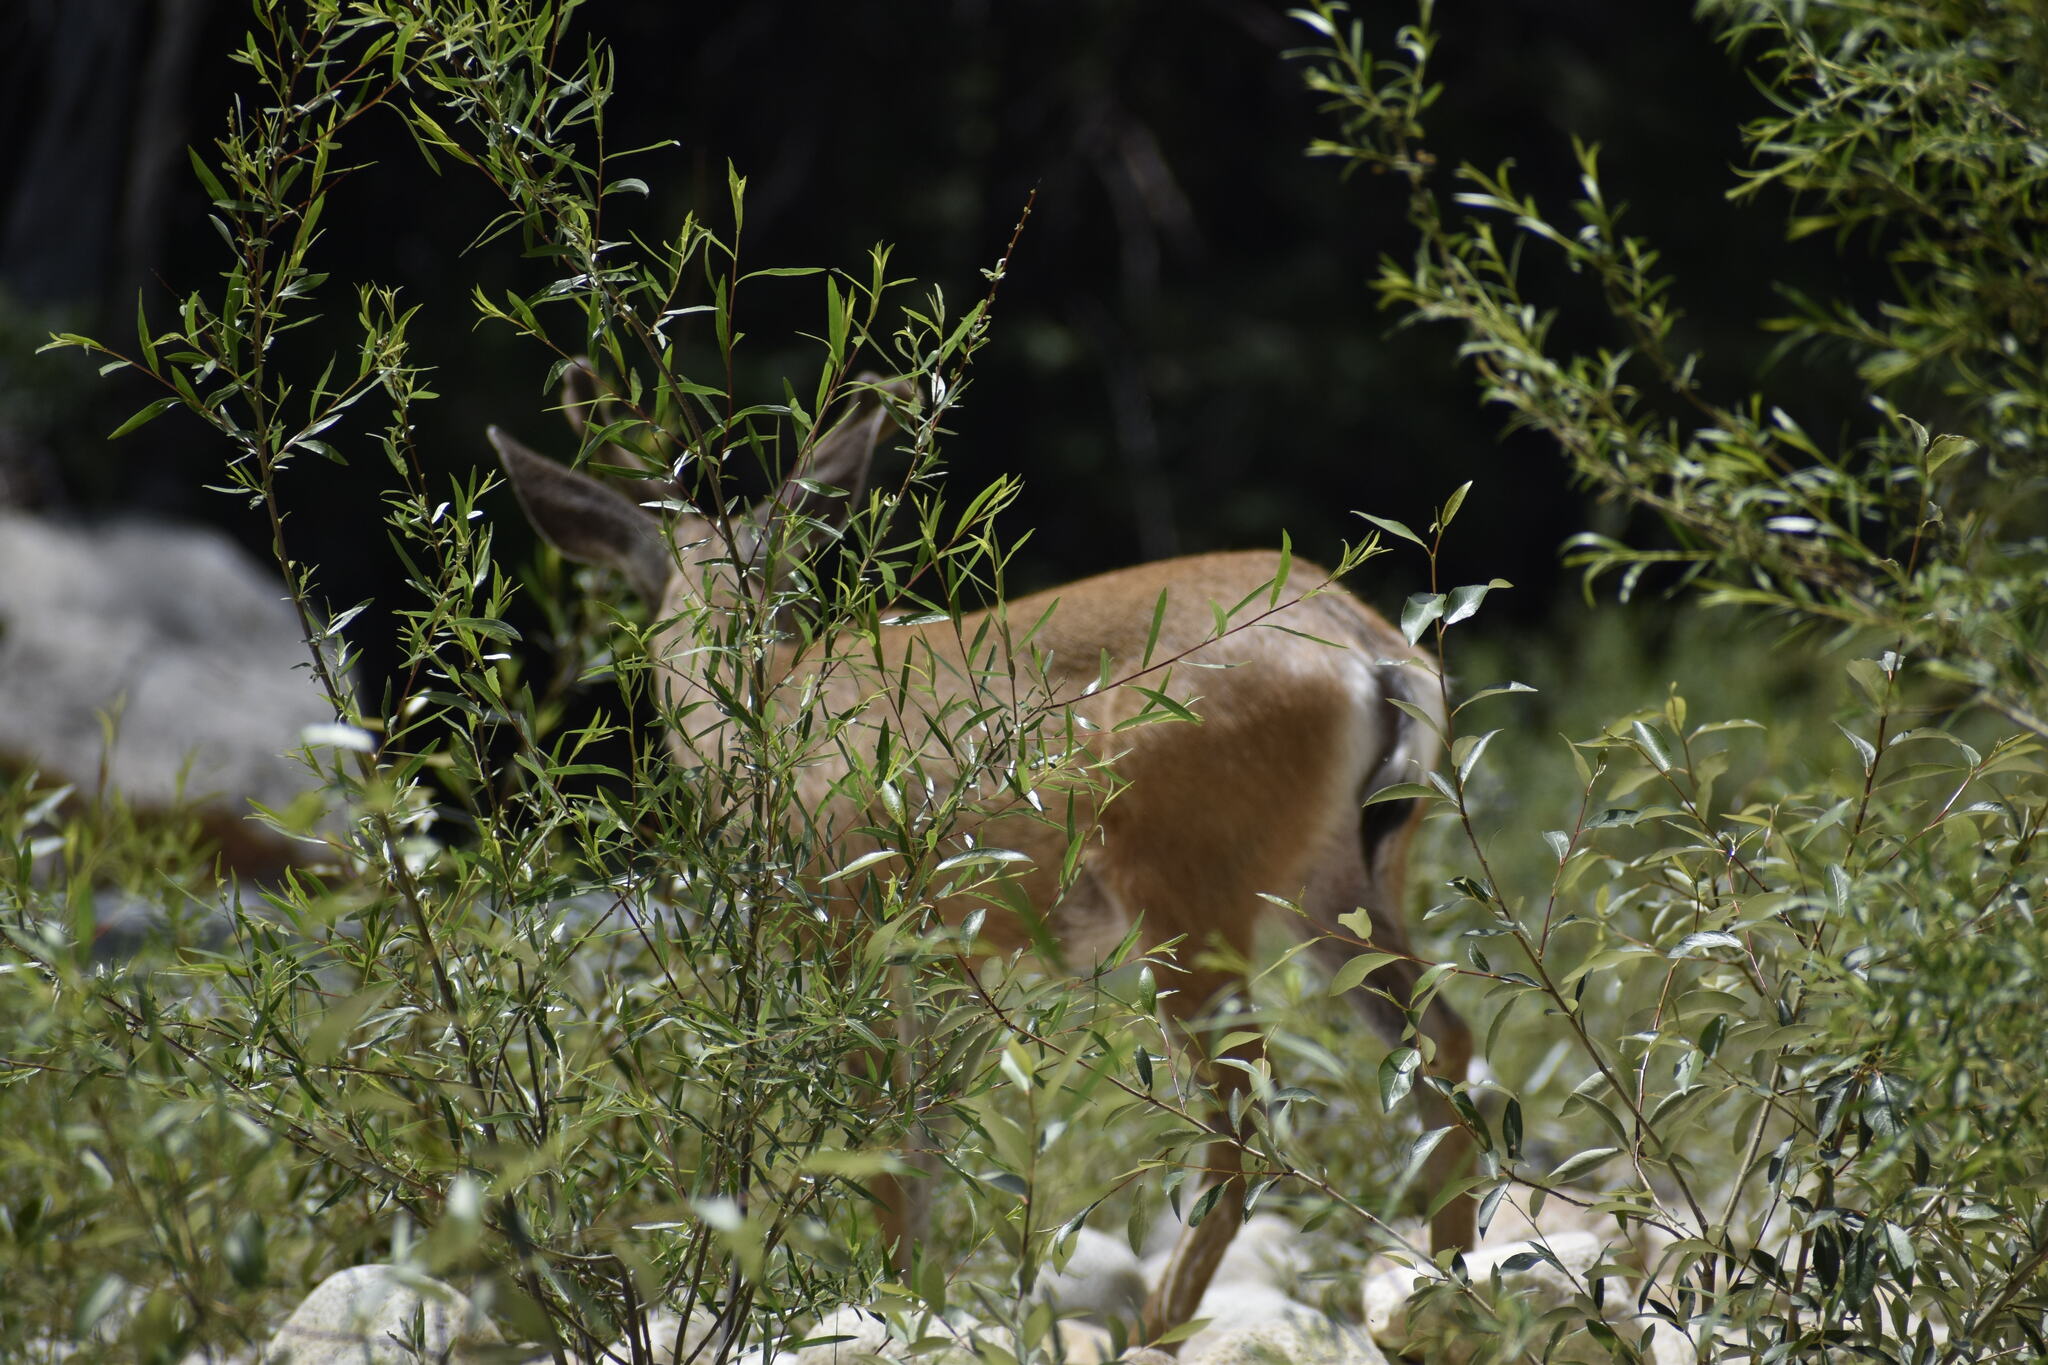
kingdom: Animalia
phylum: Chordata
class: Mammalia
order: Artiodactyla
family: Cervidae
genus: Odocoileus
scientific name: Odocoileus hemionus
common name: Mule deer
